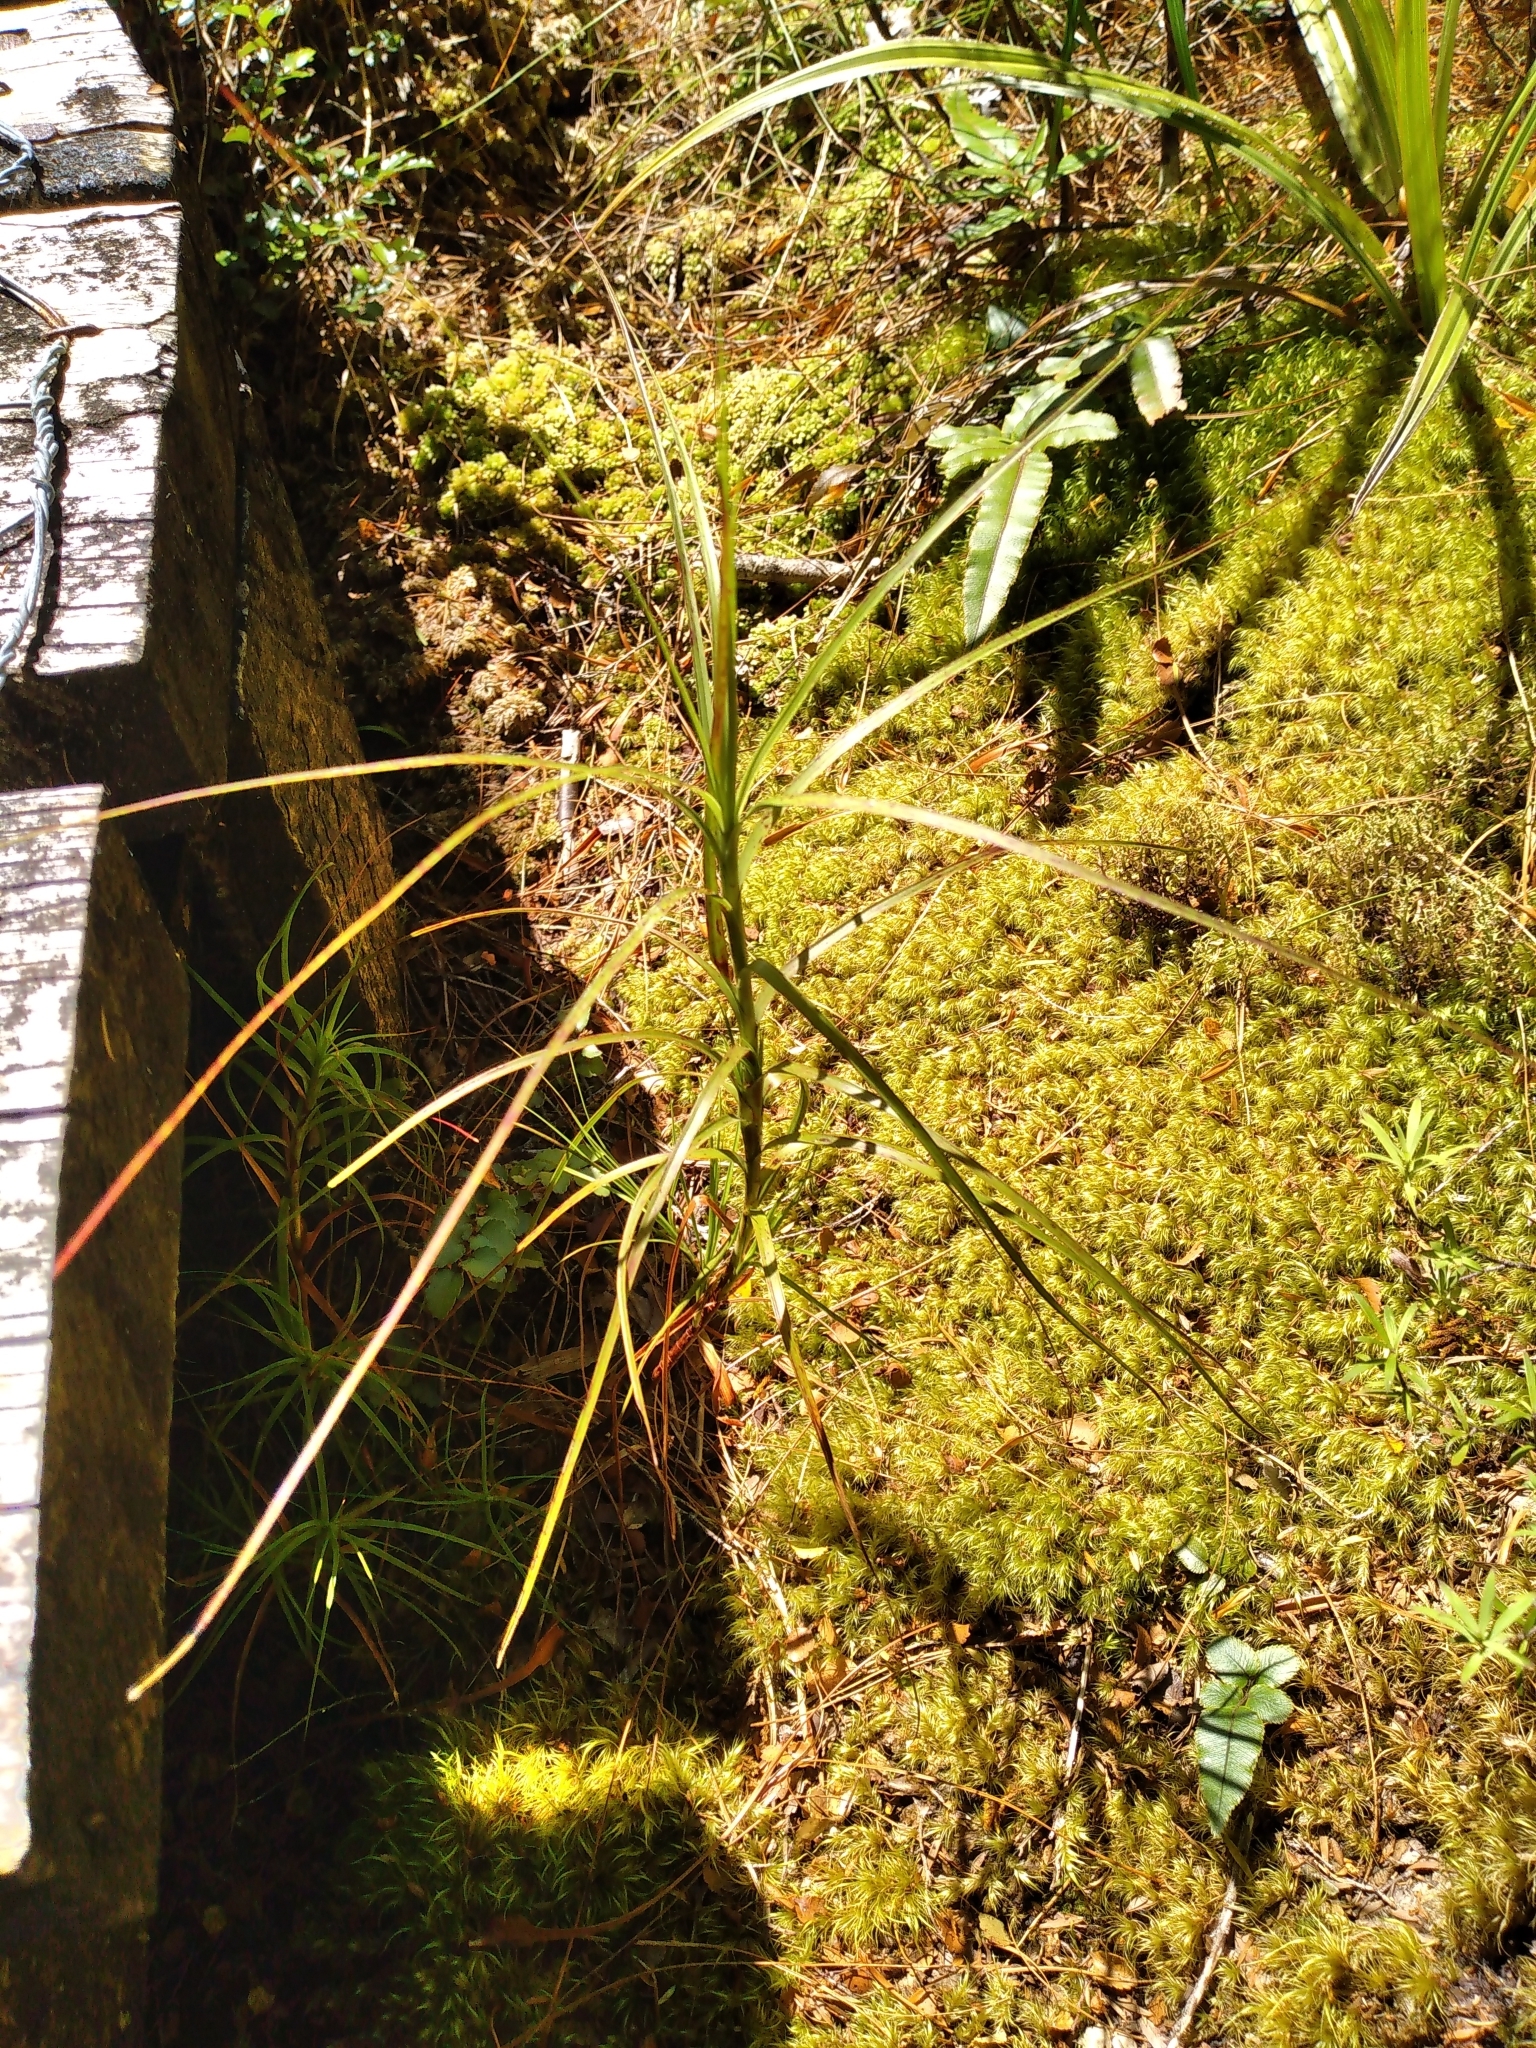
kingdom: Plantae
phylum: Tracheophyta
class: Magnoliopsida
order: Ericales
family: Ericaceae
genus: Dracophyllum
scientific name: Dracophyllum filifolium
